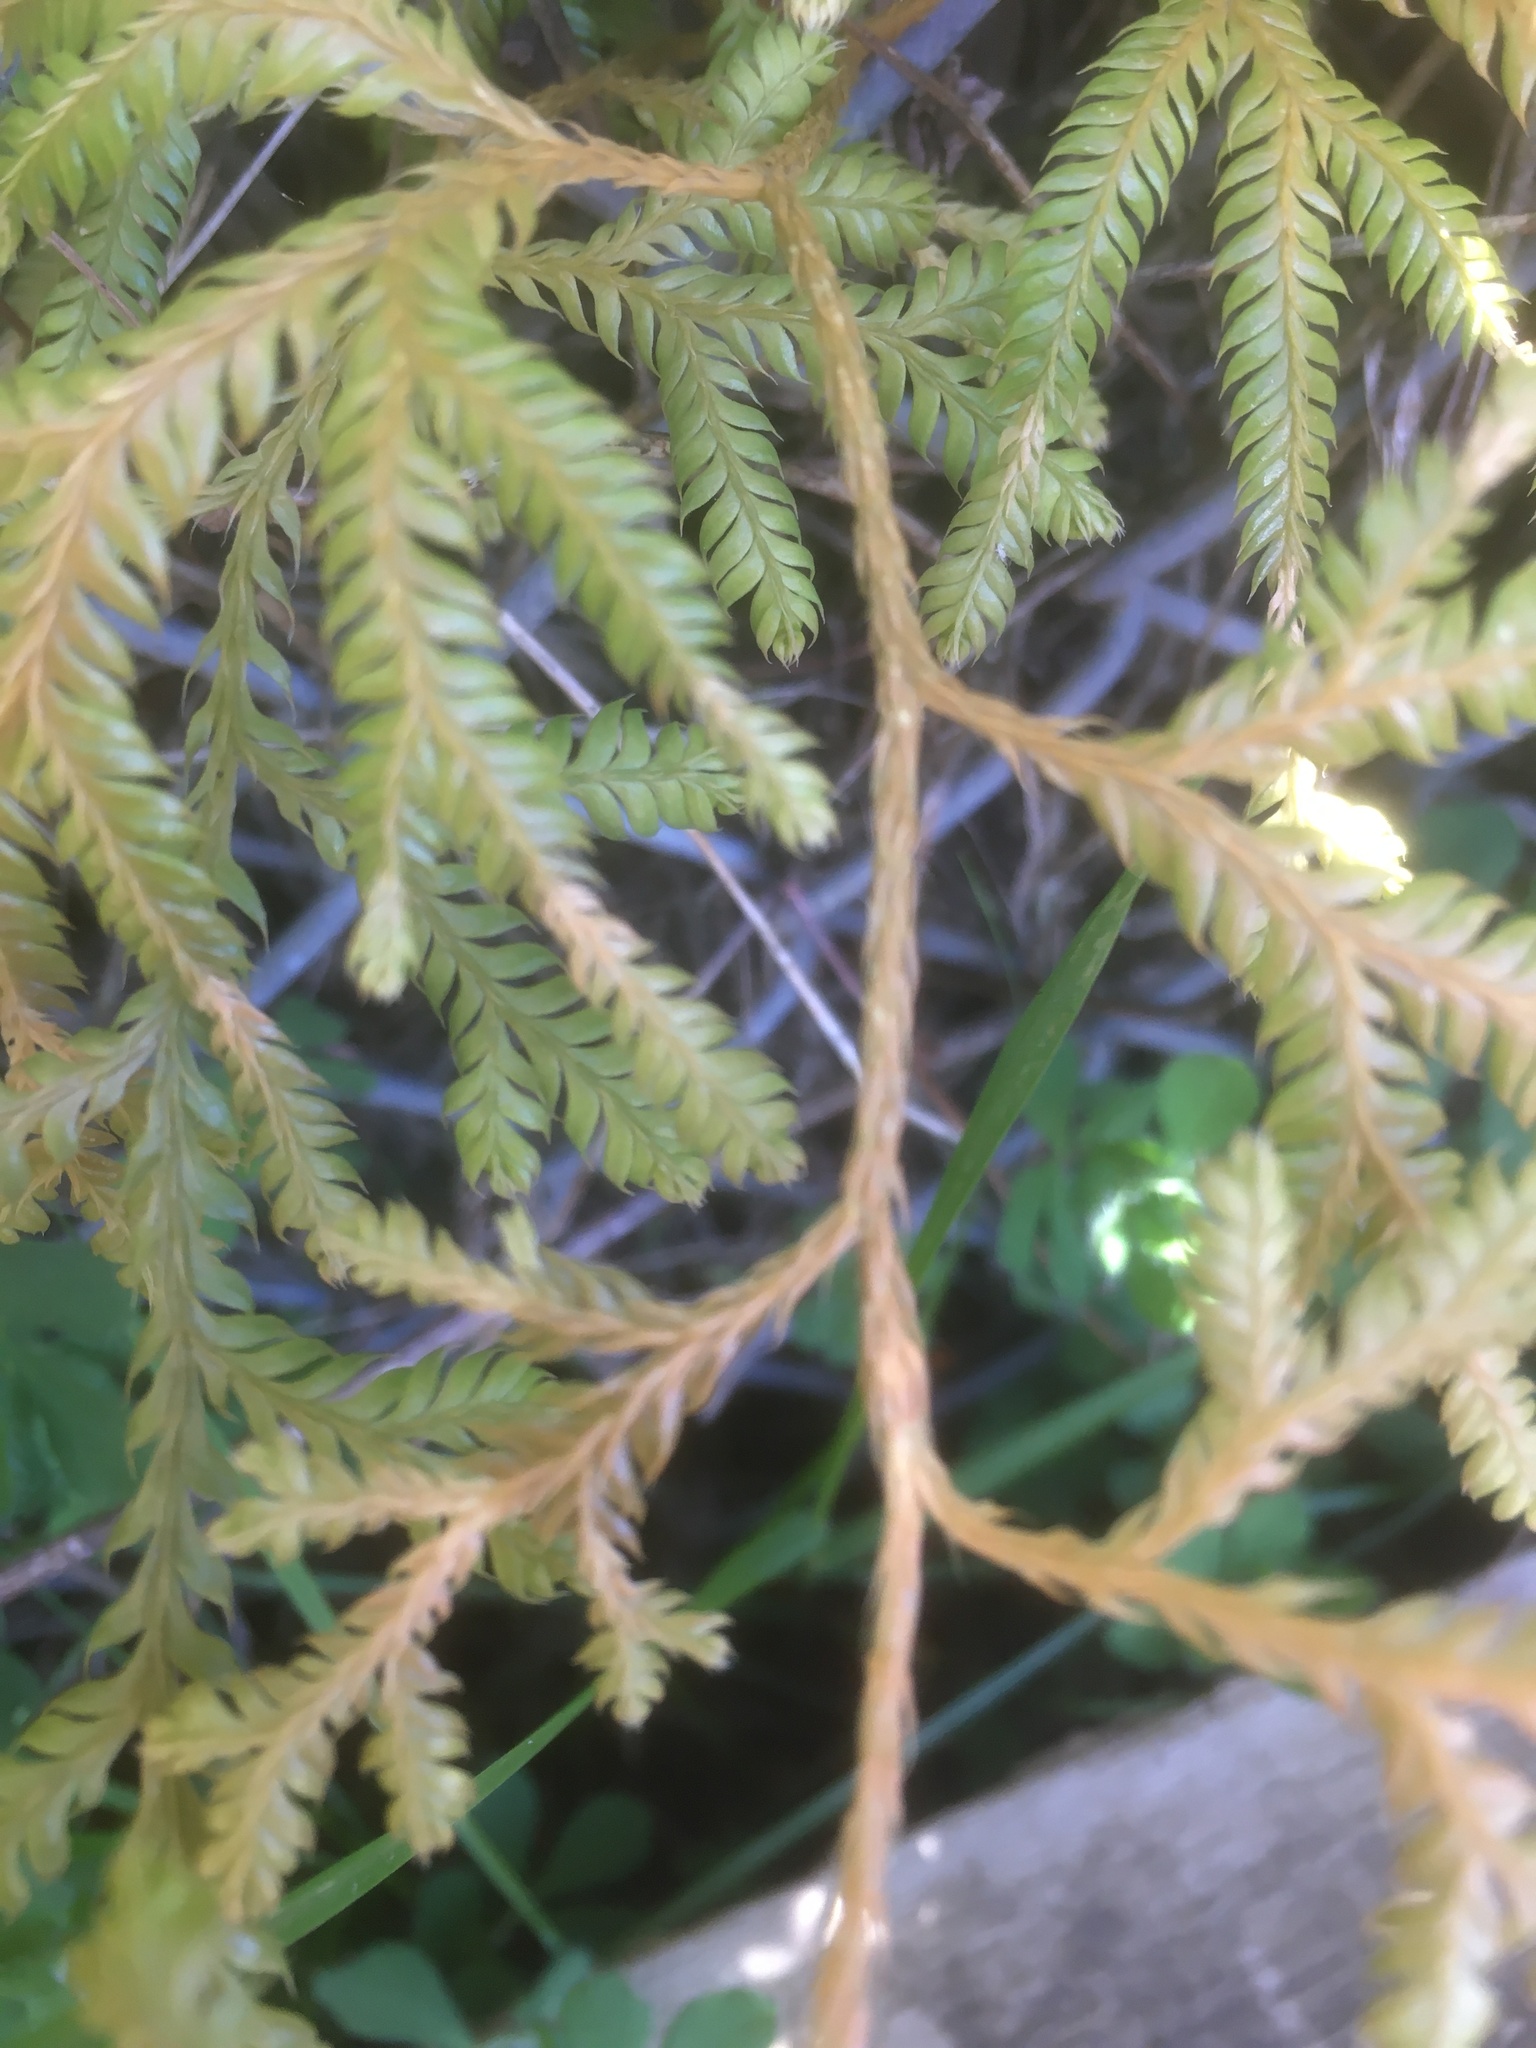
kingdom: Plantae
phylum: Tracheophyta
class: Lycopodiopsida
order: Lycopodiales
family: Lycopodiaceae
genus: Lycopodium
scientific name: Lycopodium volubile
